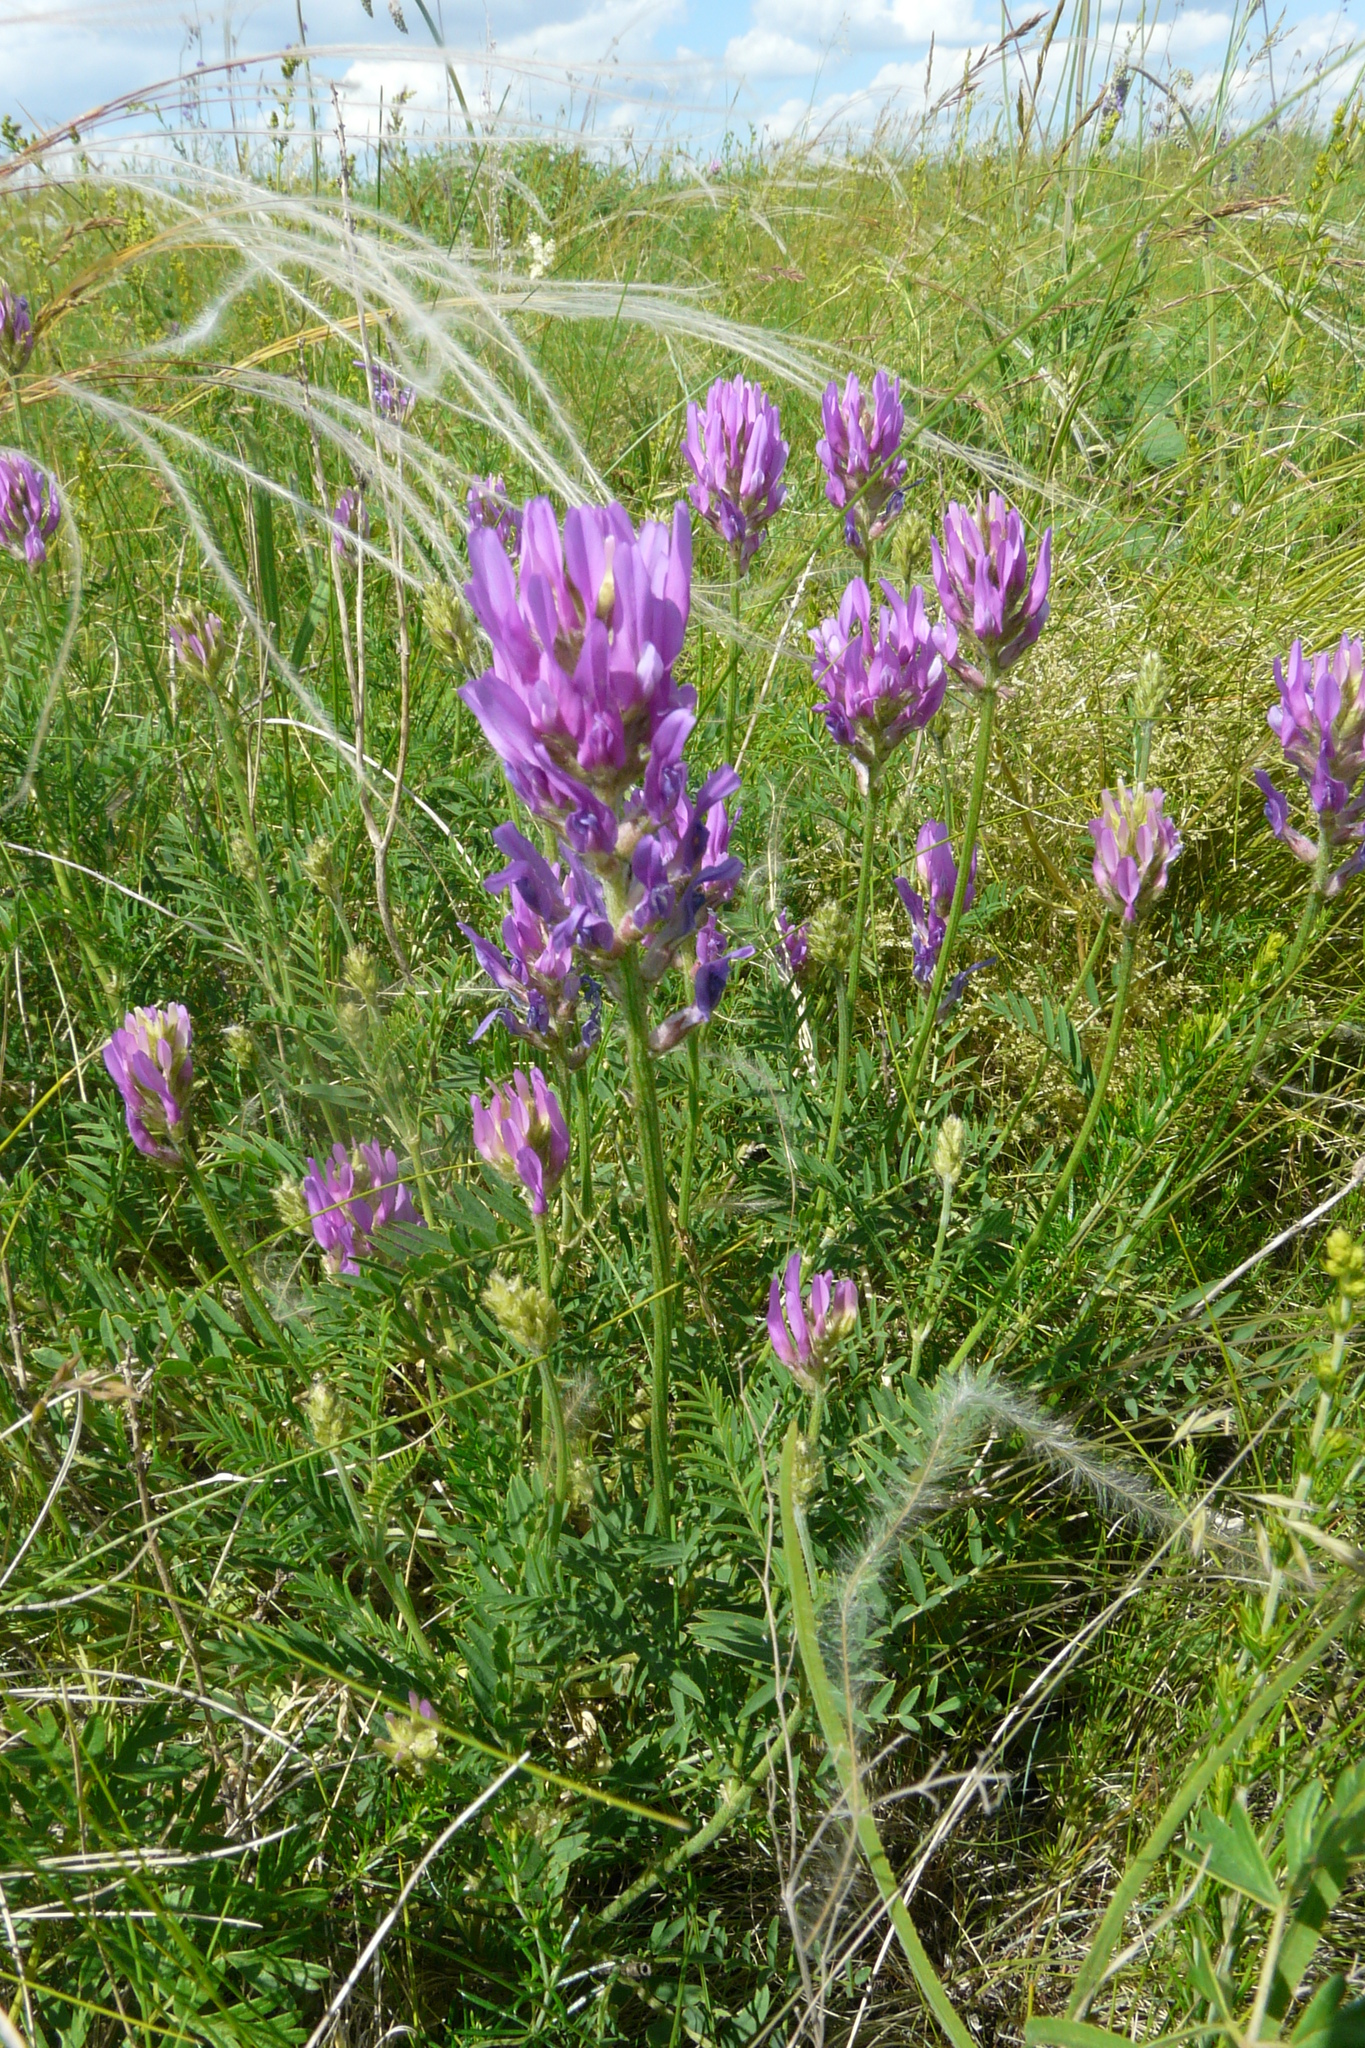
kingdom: Plantae
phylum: Tracheophyta
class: Magnoliopsida
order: Fabales
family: Fabaceae
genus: Astragalus
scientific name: Astragalus onobrychis
